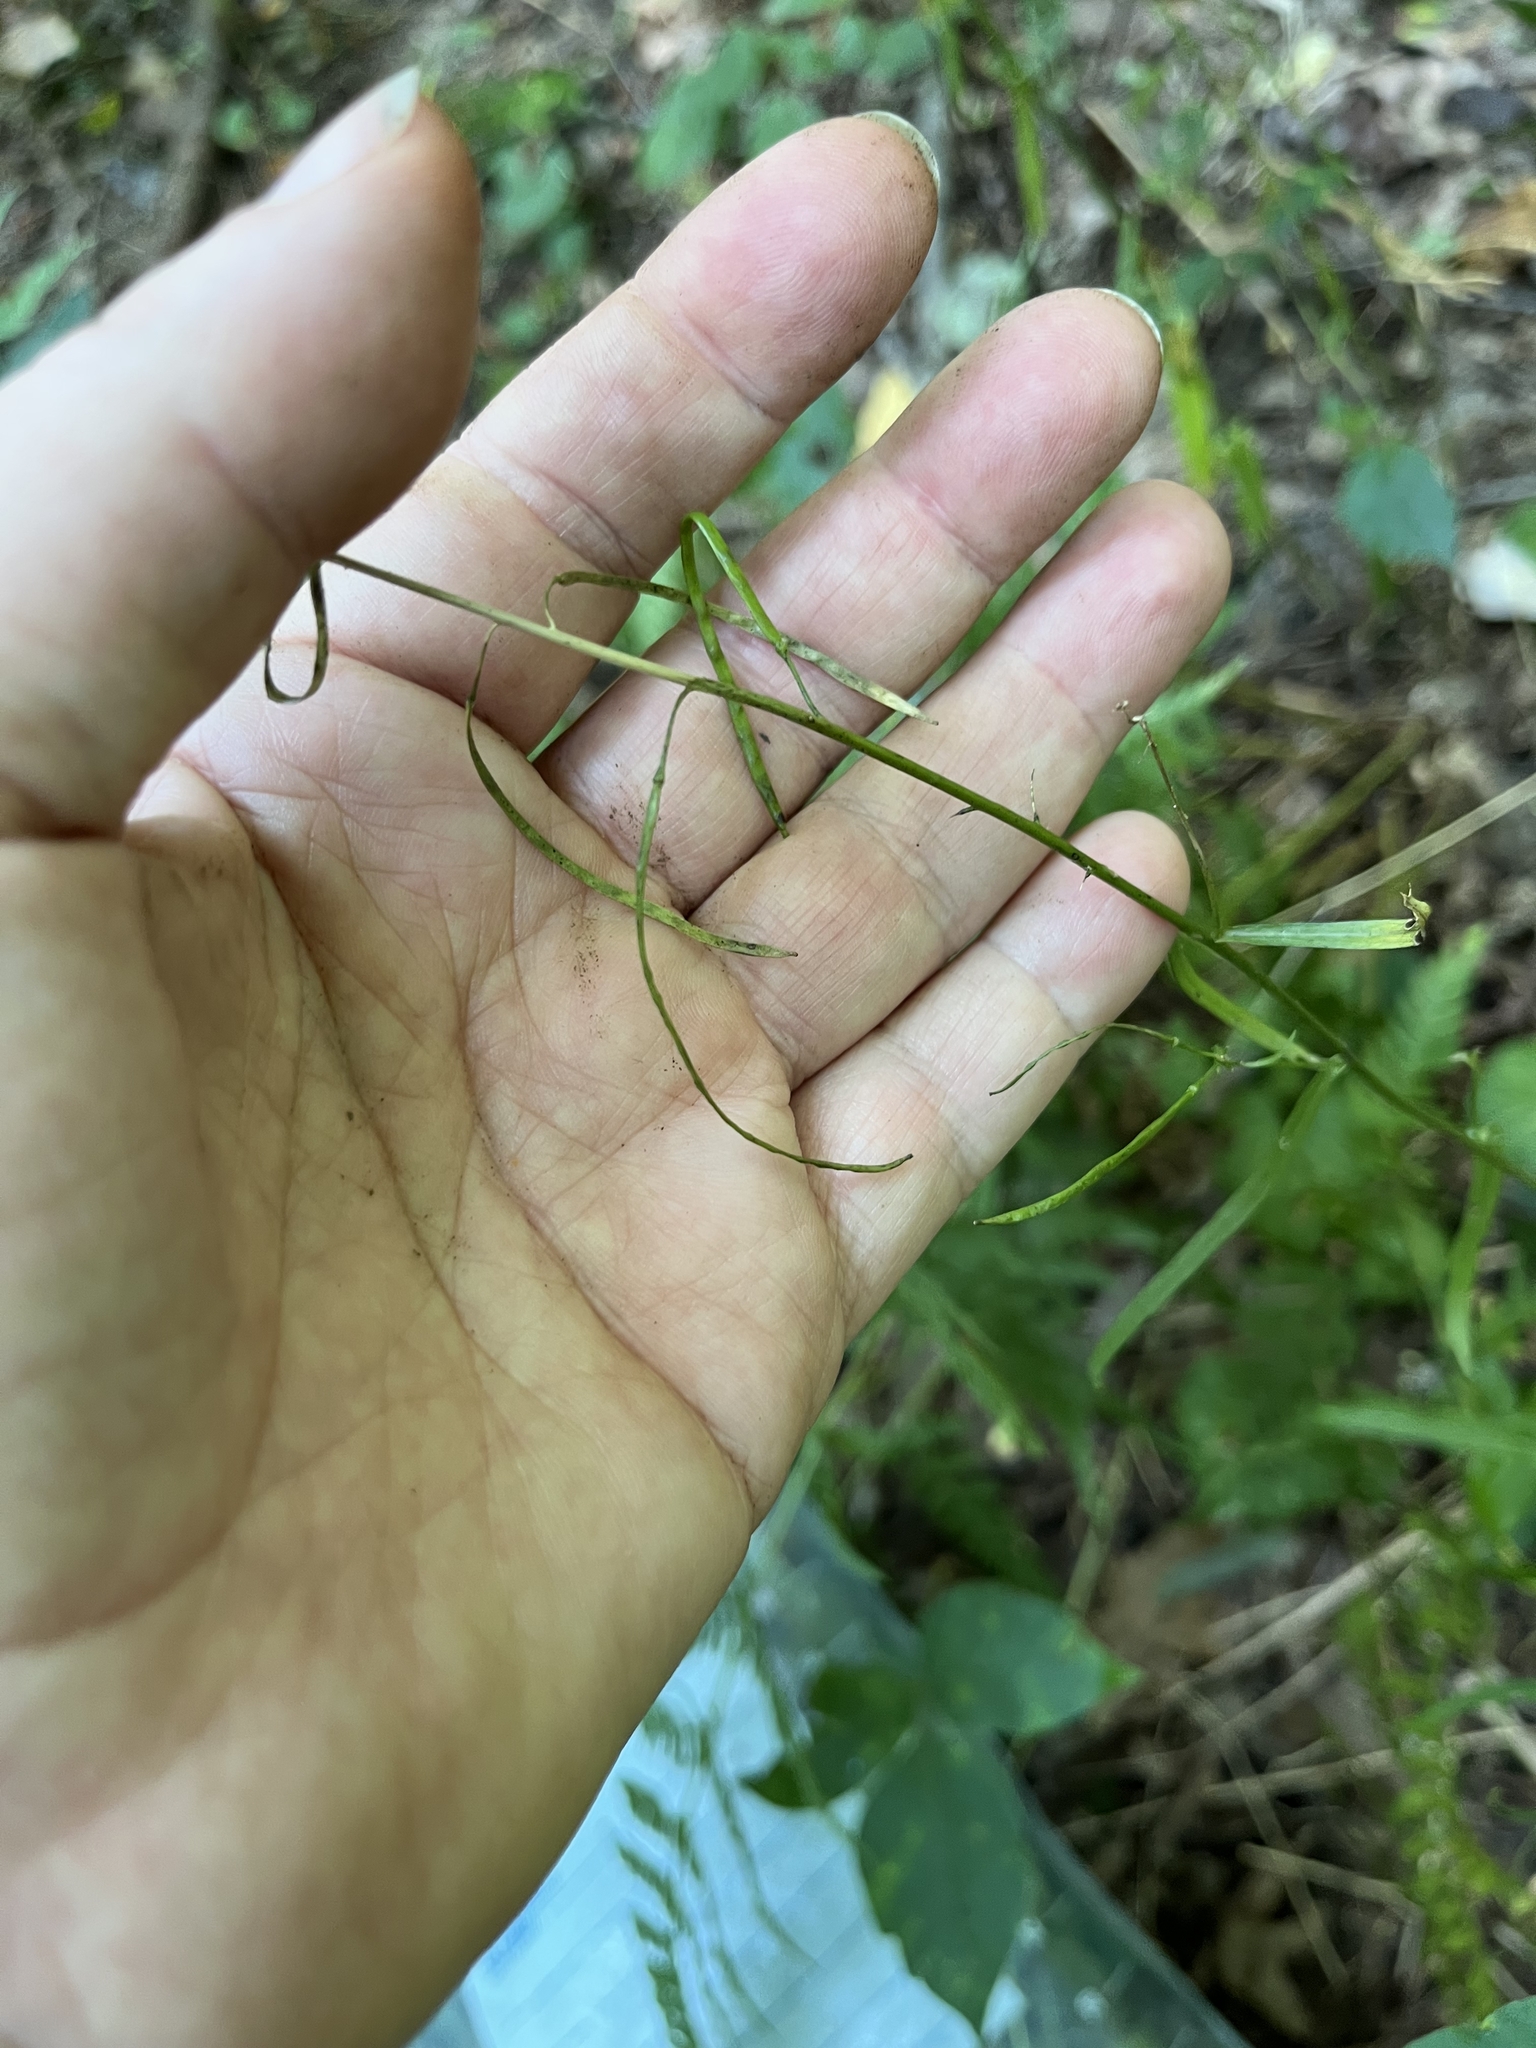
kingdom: Plantae
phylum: Tracheophyta
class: Magnoliopsida
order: Brassicales
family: Brassicaceae
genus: Borodinia
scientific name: Borodinia laevigata
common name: Smooth rockcress
